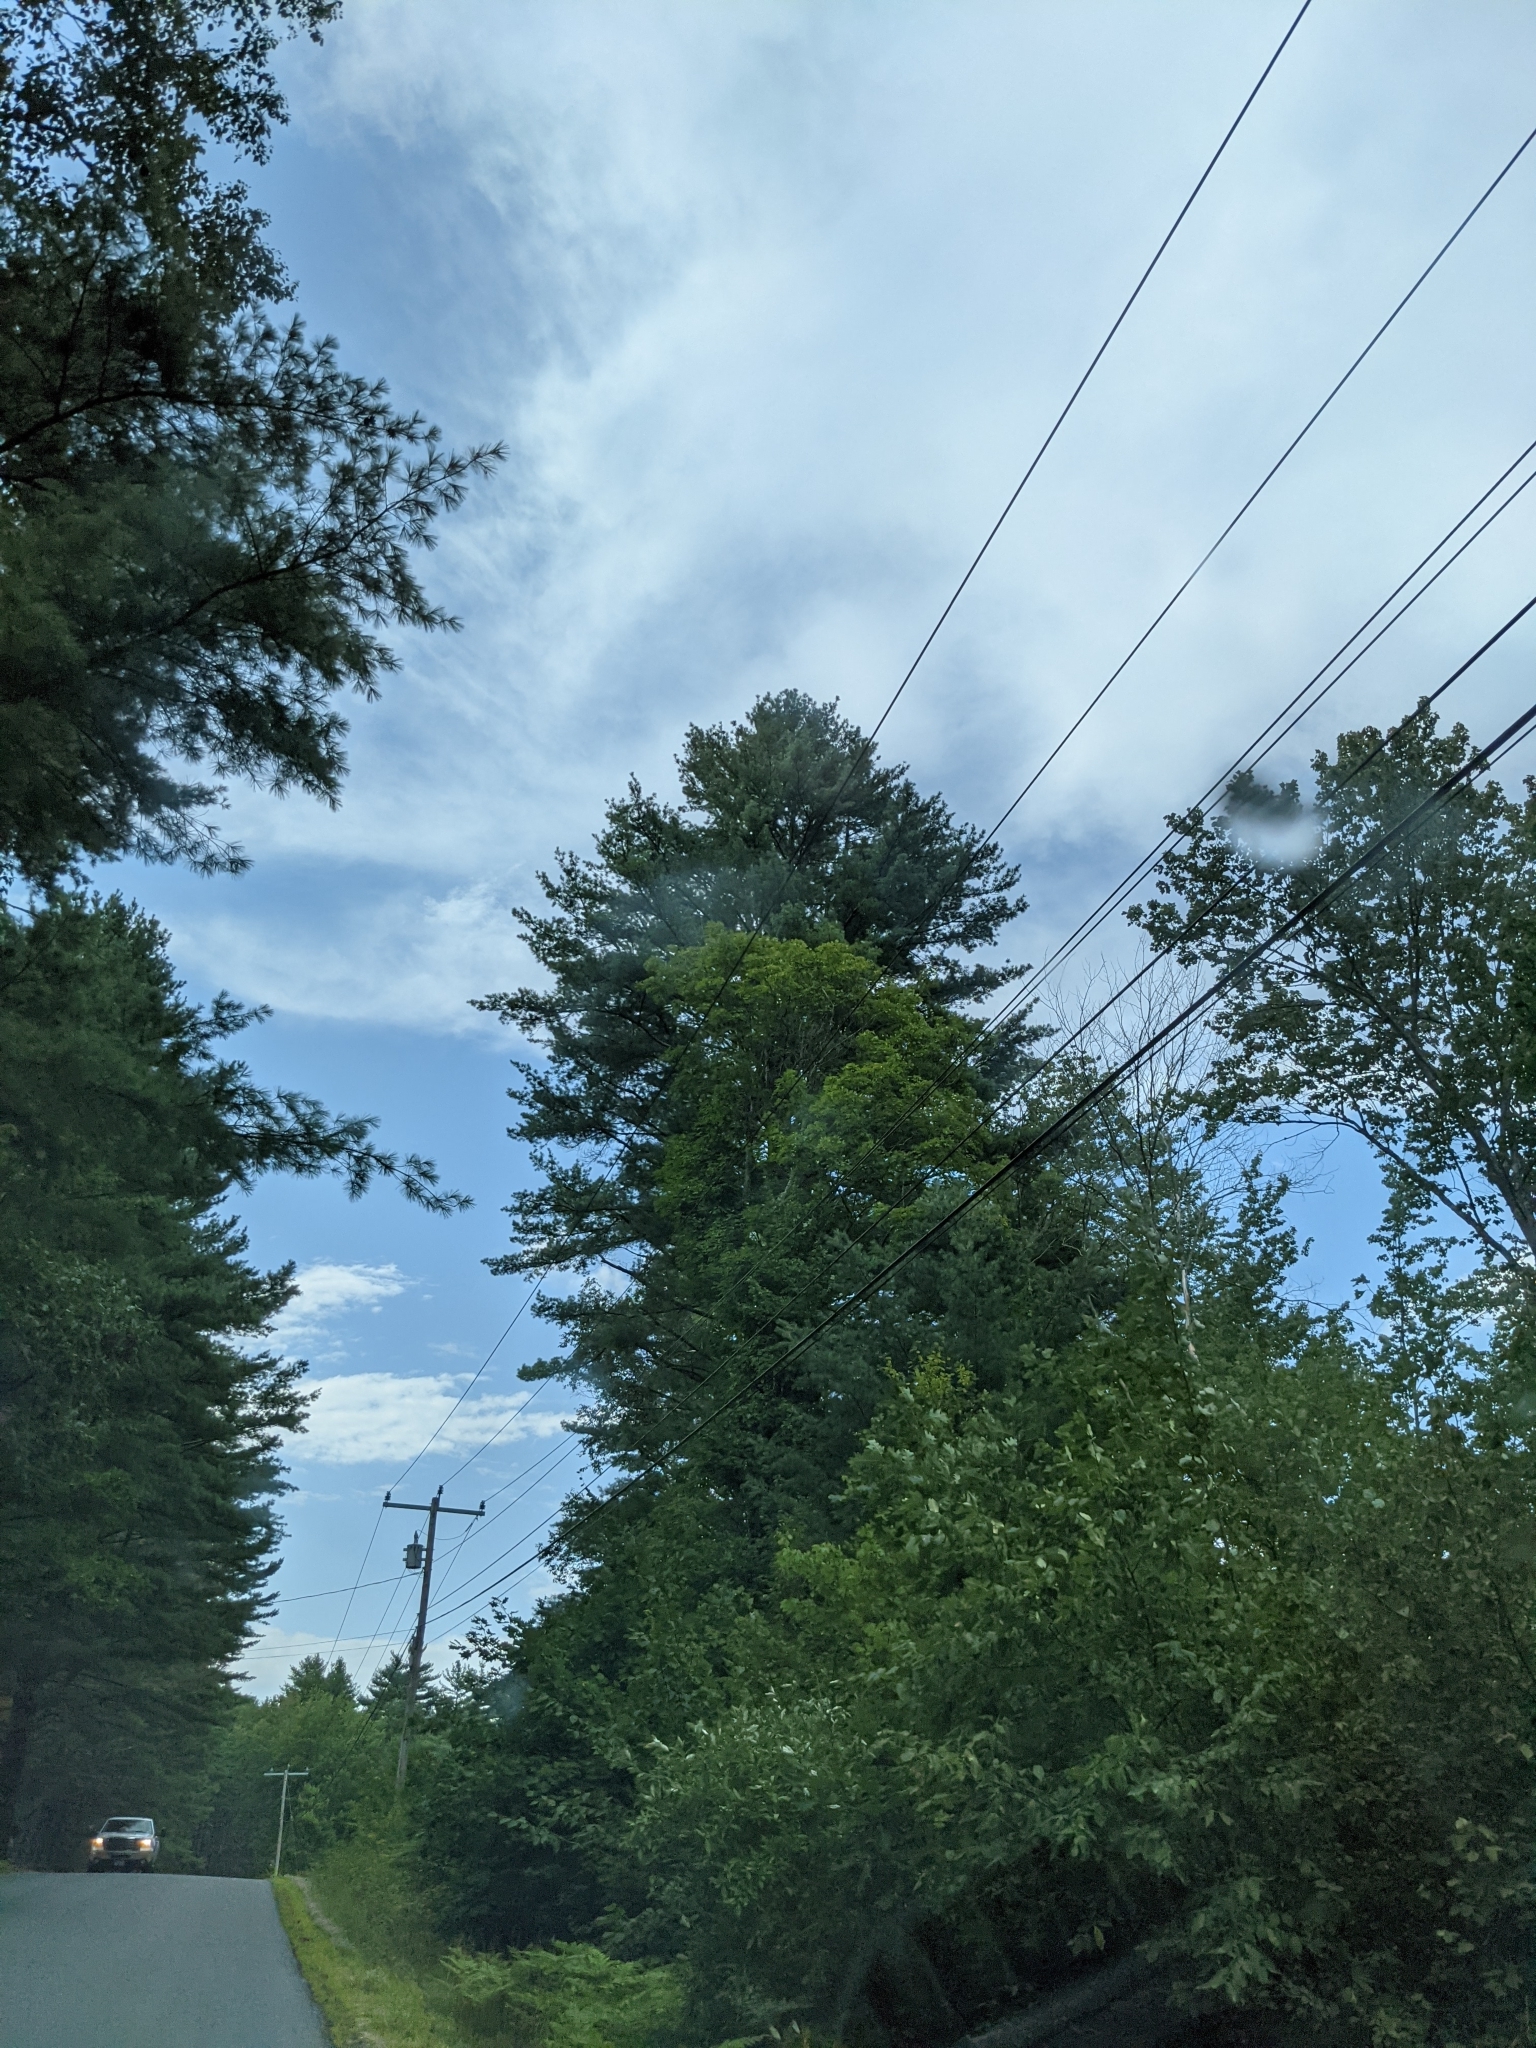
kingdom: Plantae
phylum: Tracheophyta
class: Pinopsida
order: Pinales
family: Pinaceae
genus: Pinus
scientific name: Pinus strobus
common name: Weymouth pine
